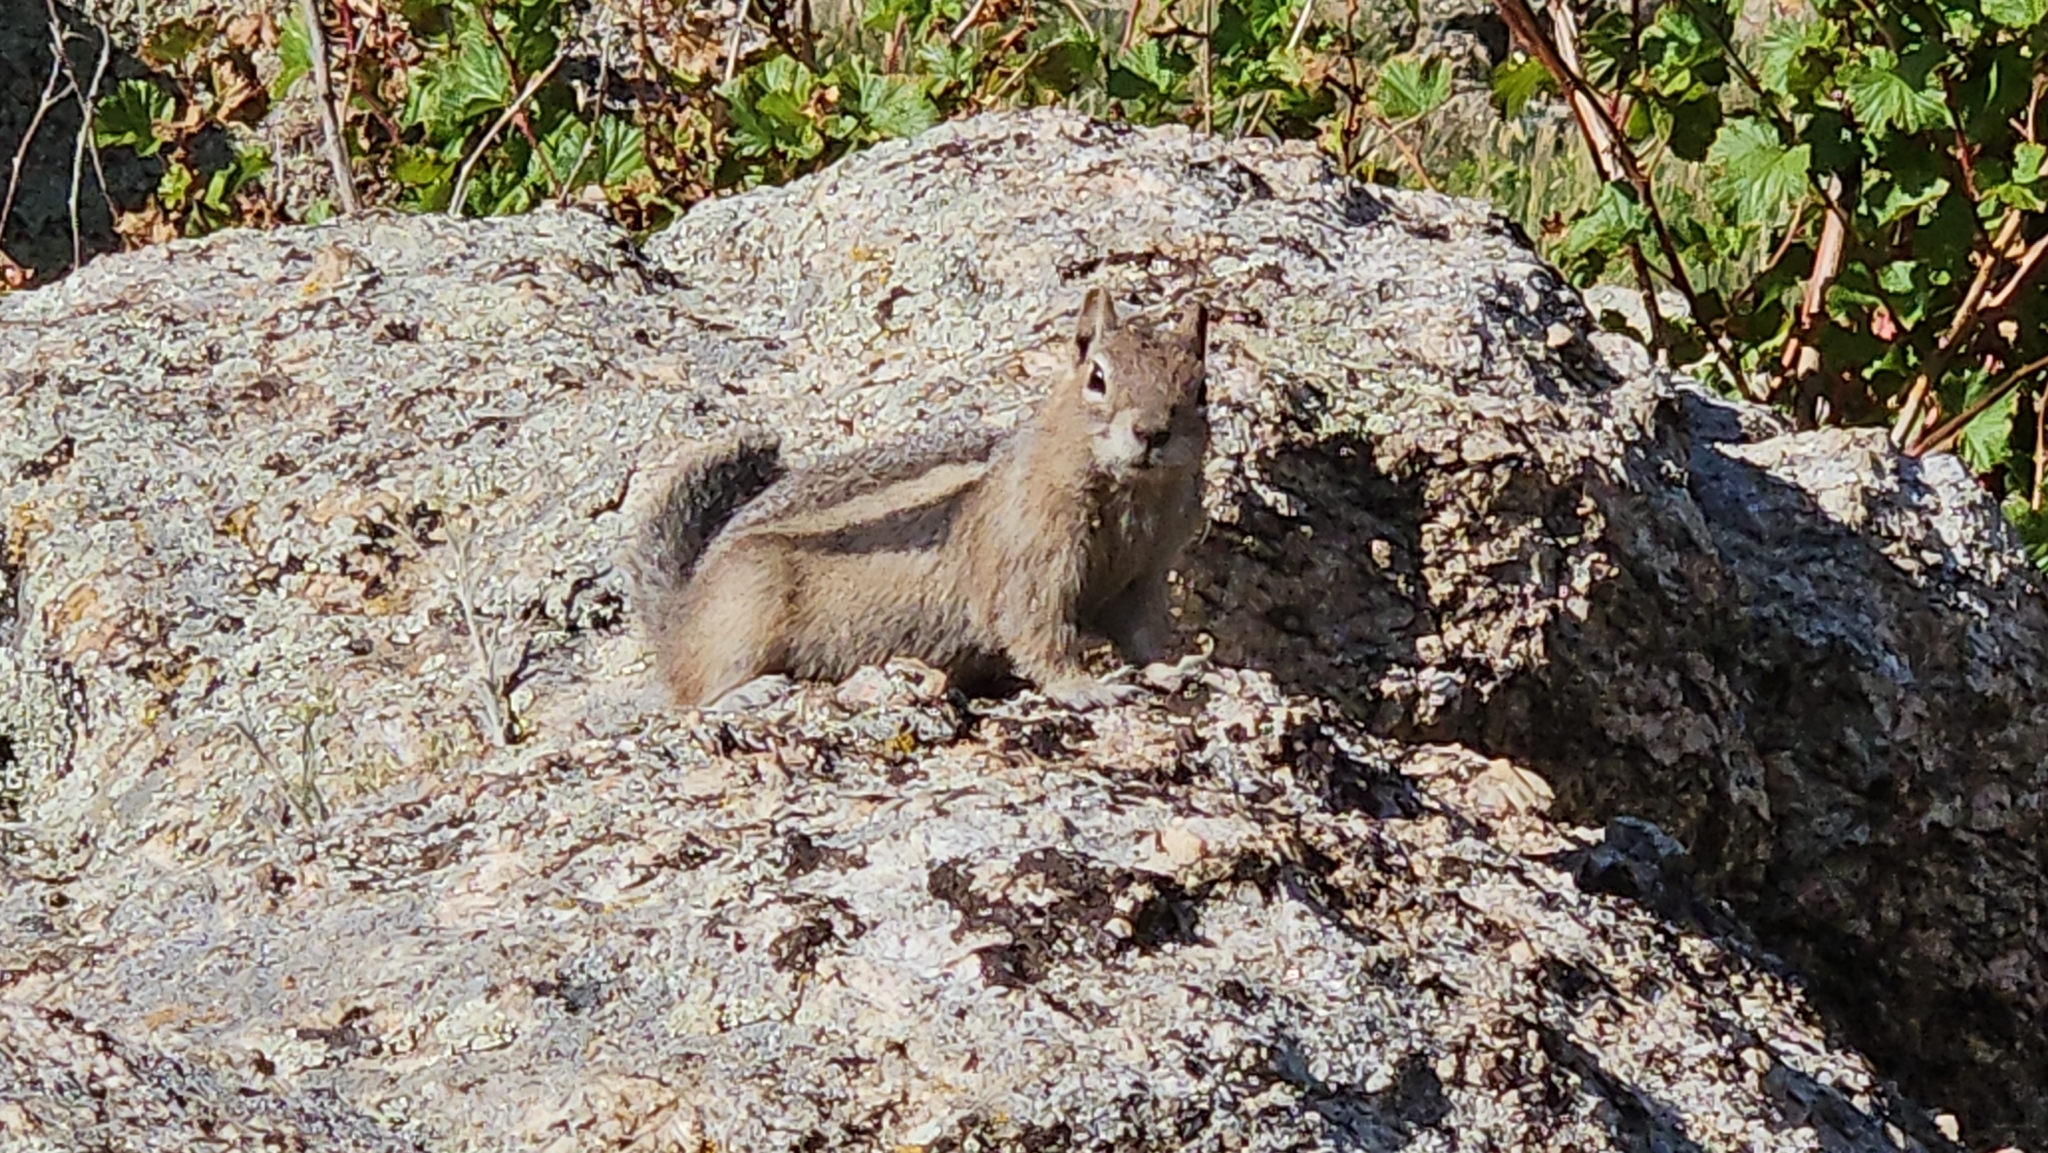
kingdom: Animalia
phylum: Chordata
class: Mammalia
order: Rodentia
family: Sciuridae
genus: Callospermophilus
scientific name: Callospermophilus lateralis
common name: Golden-mantled ground squirrel
